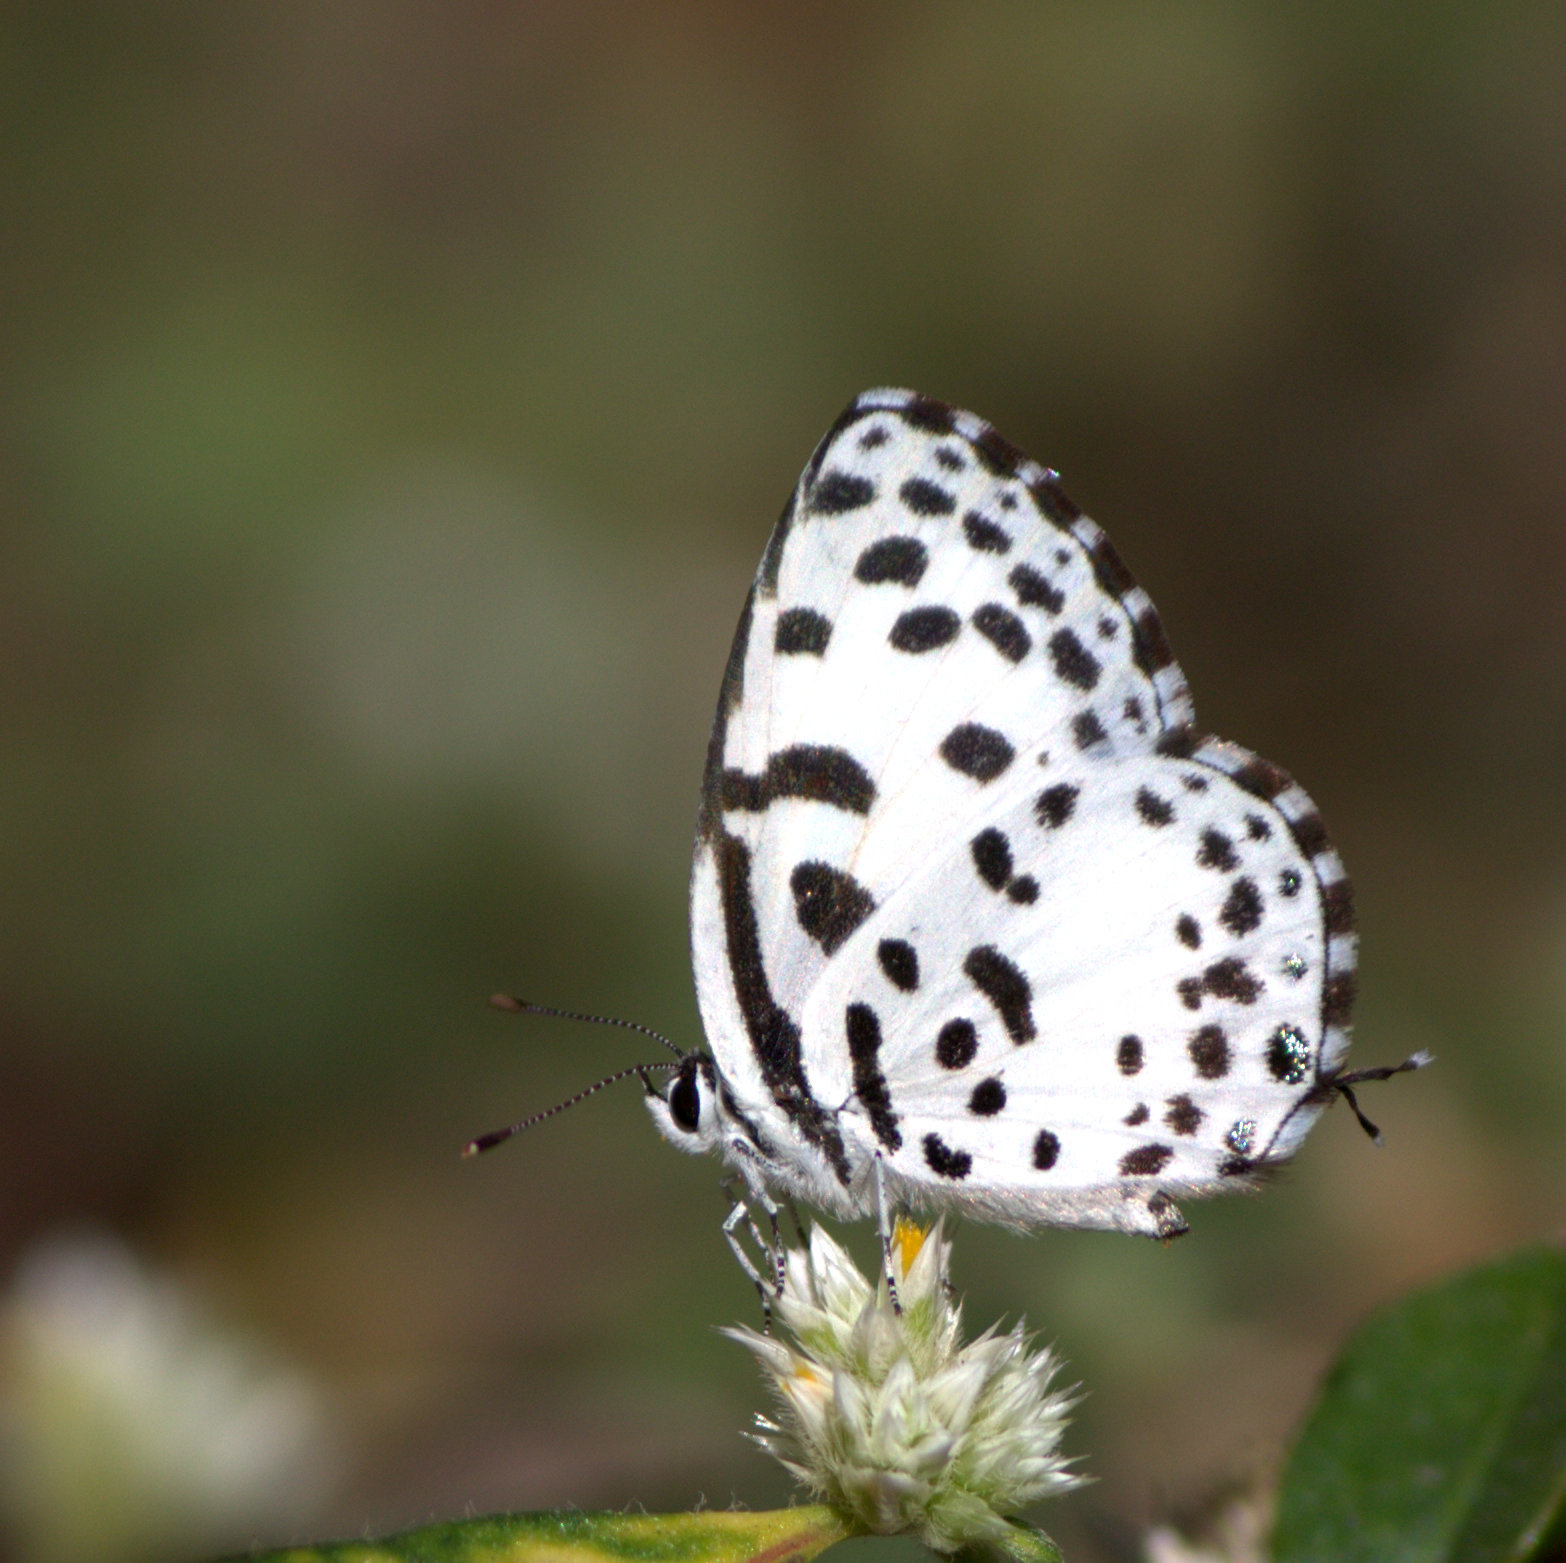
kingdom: Animalia
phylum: Arthropoda
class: Insecta
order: Lepidoptera
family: Lycaenidae
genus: Castalius
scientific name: Castalius rosimon
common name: Common pierrot
